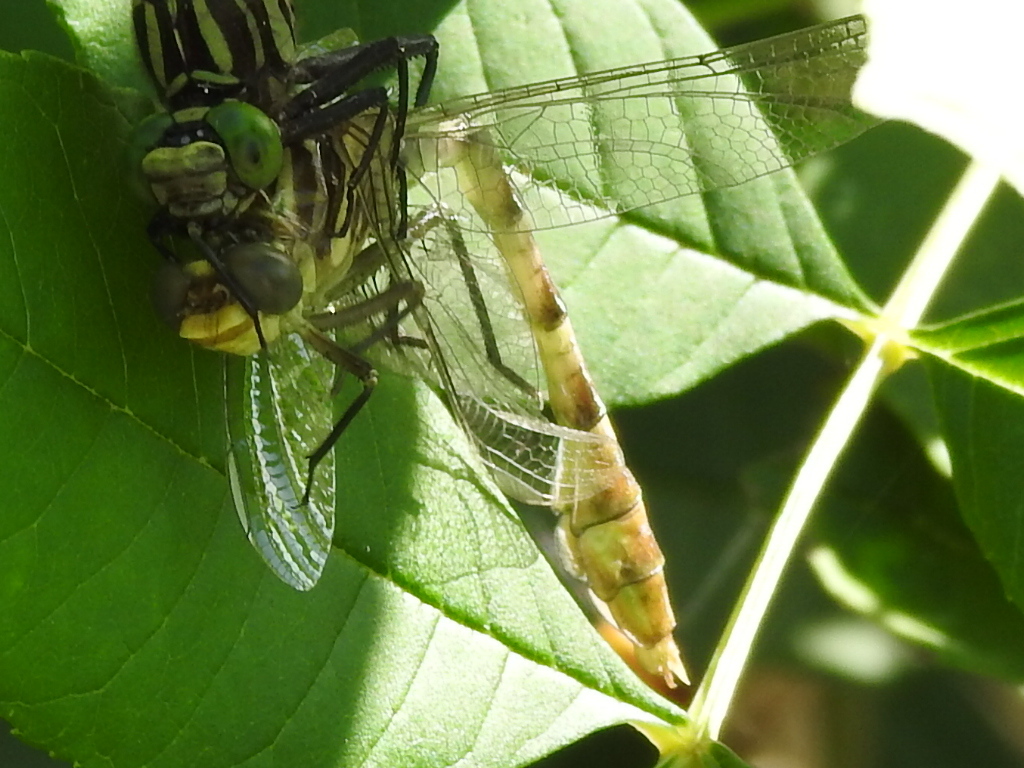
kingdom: Animalia
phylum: Arthropoda
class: Insecta
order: Odonata
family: Gomphidae
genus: Dromogomphus
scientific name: Dromogomphus spoliatus
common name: Flag-tailed spinyleg
